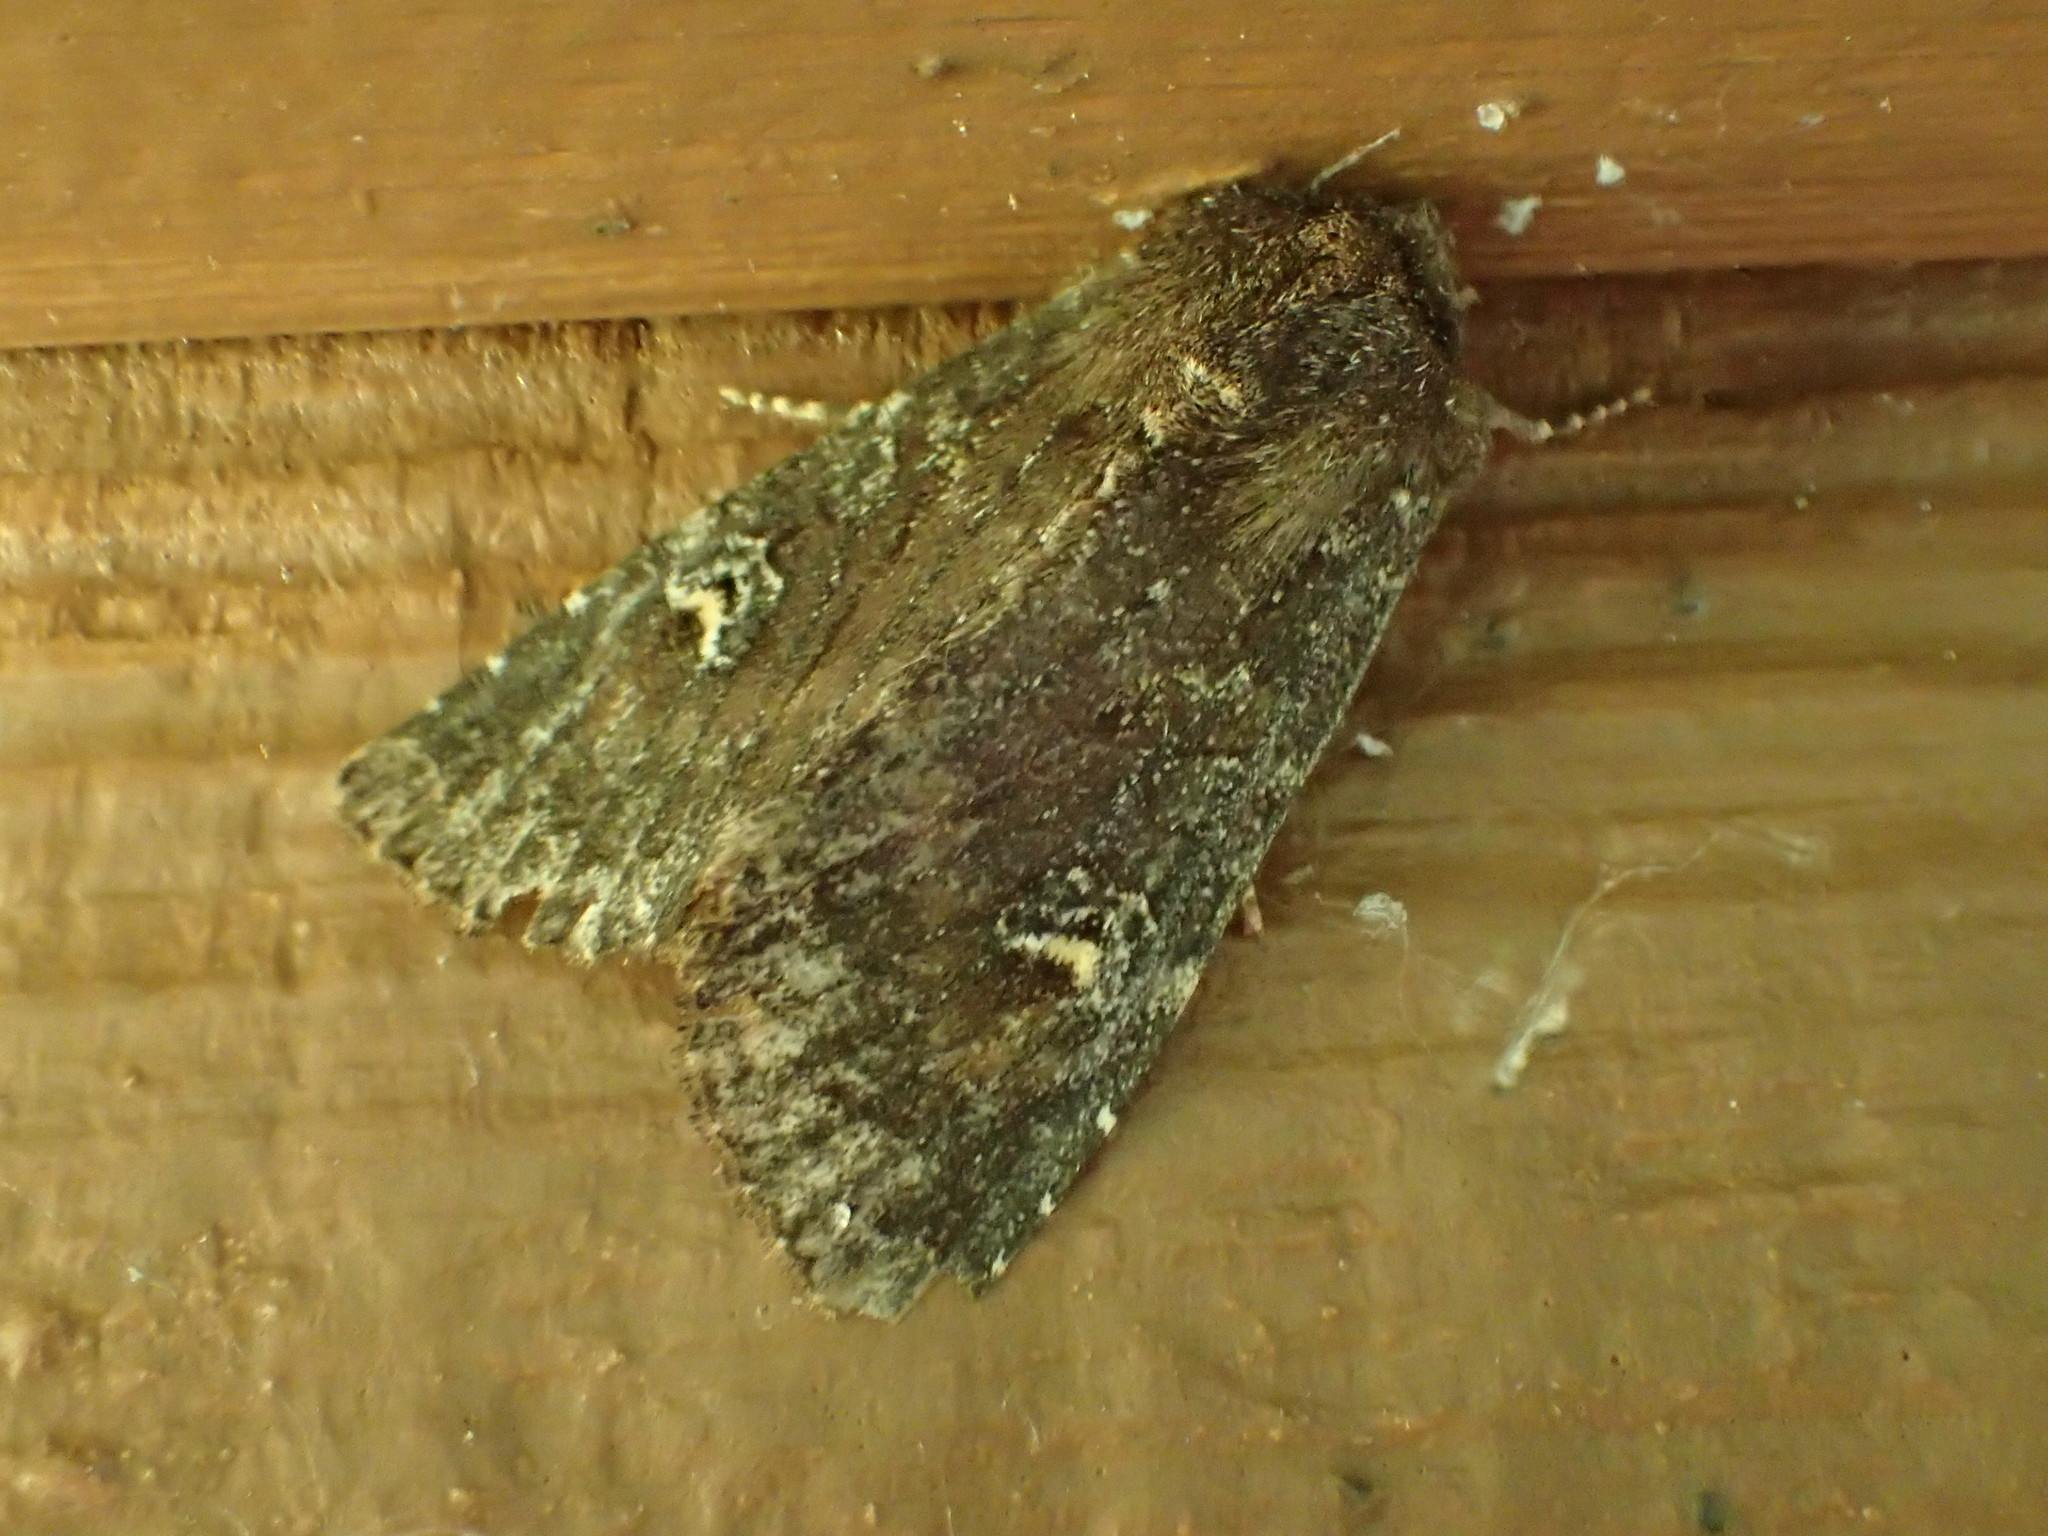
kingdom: Animalia
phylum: Arthropoda
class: Insecta
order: Lepidoptera
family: Noctuidae
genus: Apamea
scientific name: Apamea cogitata
